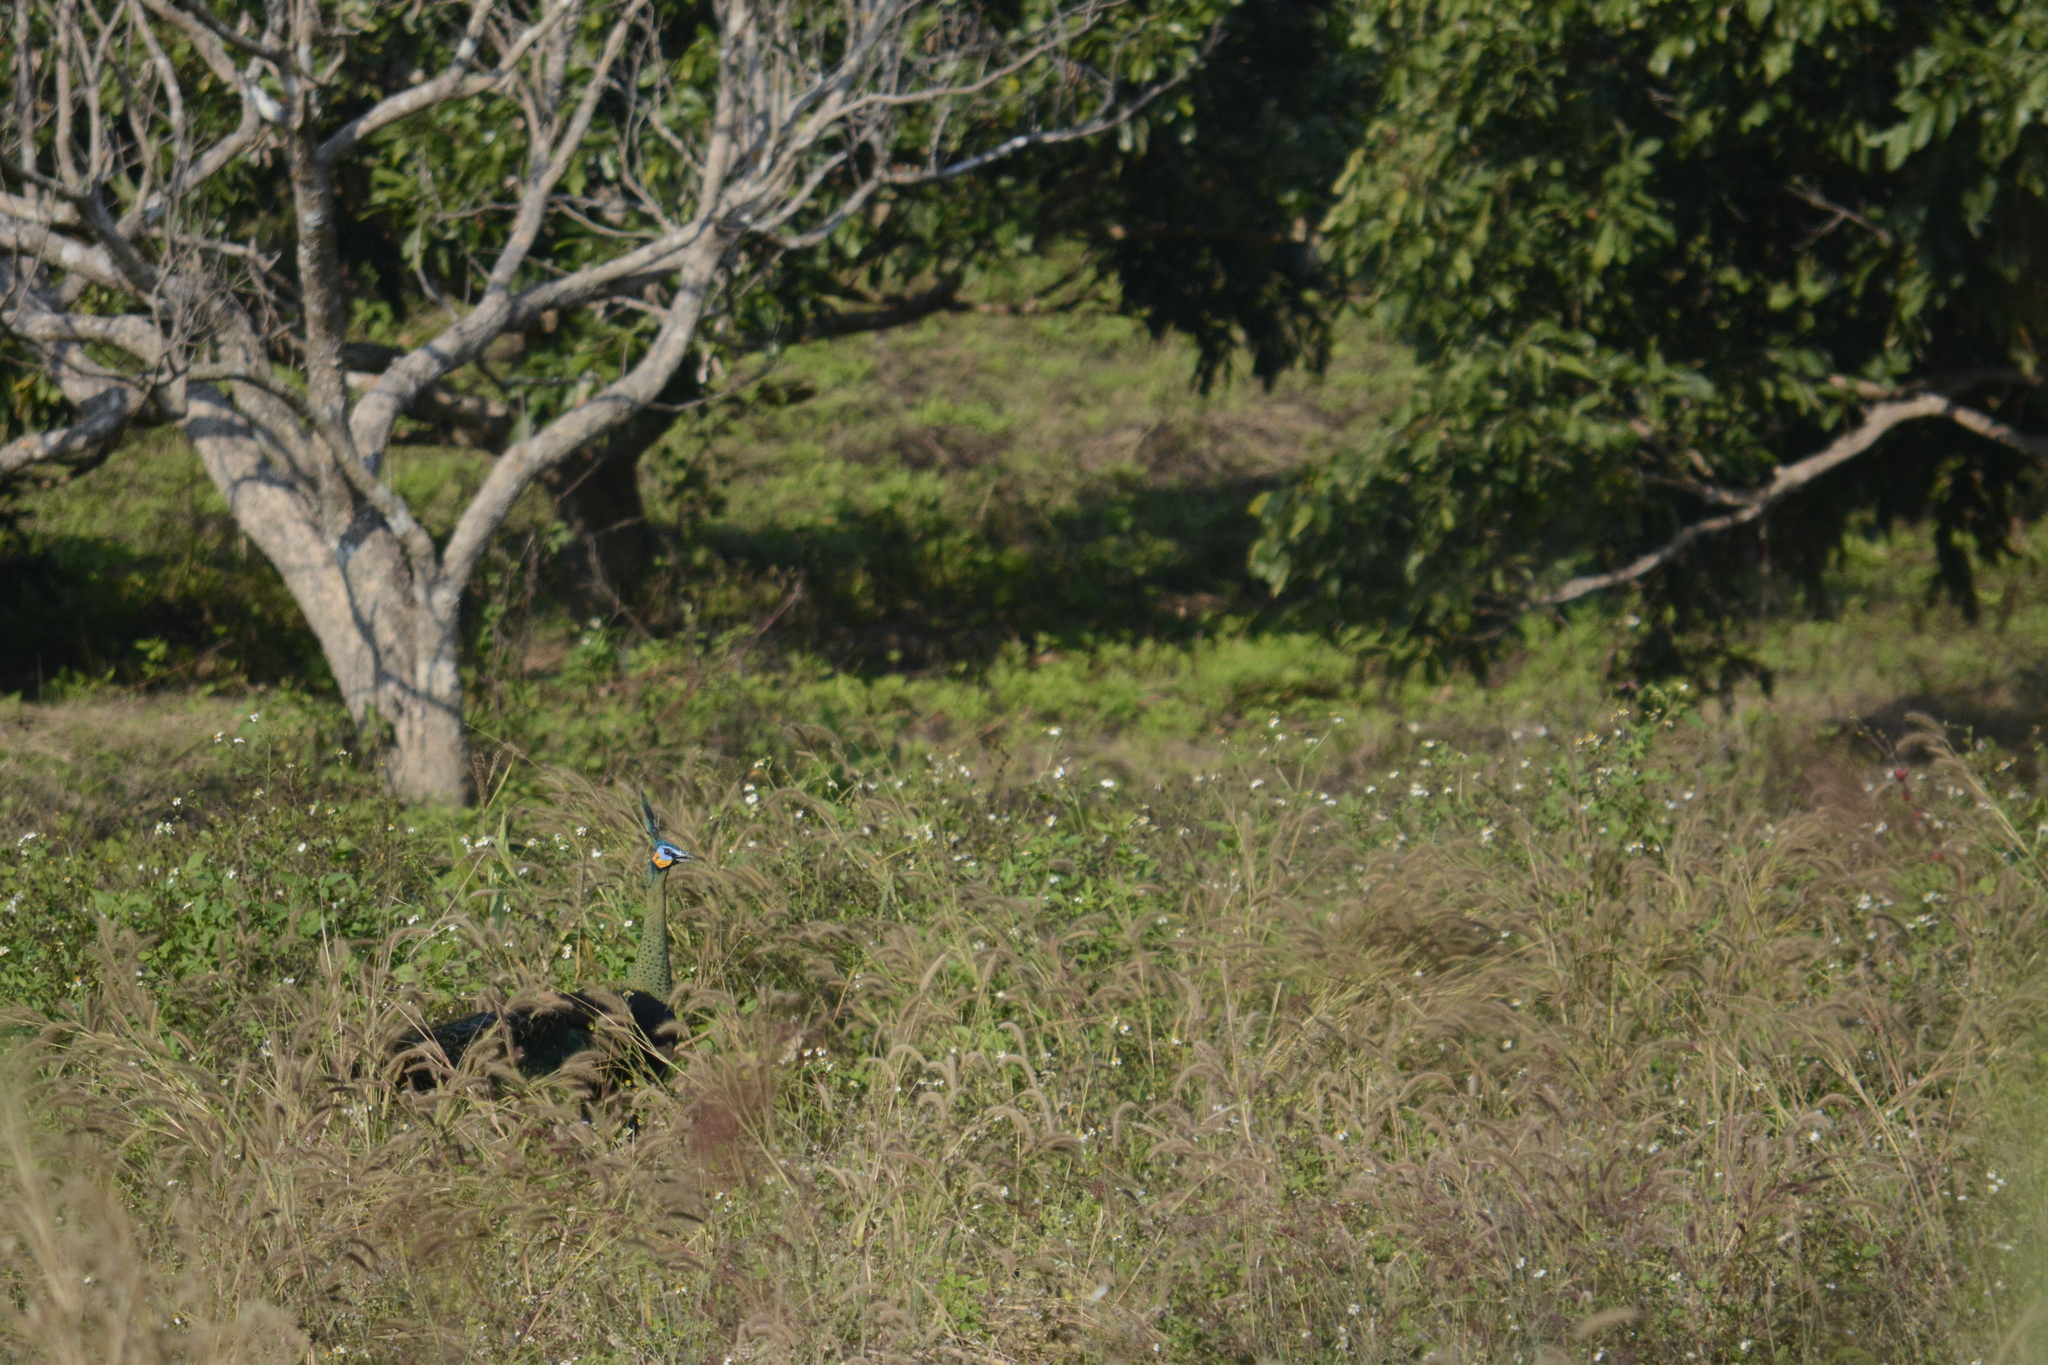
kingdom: Animalia
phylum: Chordata
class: Aves
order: Galliformes
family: Phasianidae
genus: Pavo
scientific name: Pavo muticus
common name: Green peafowl
